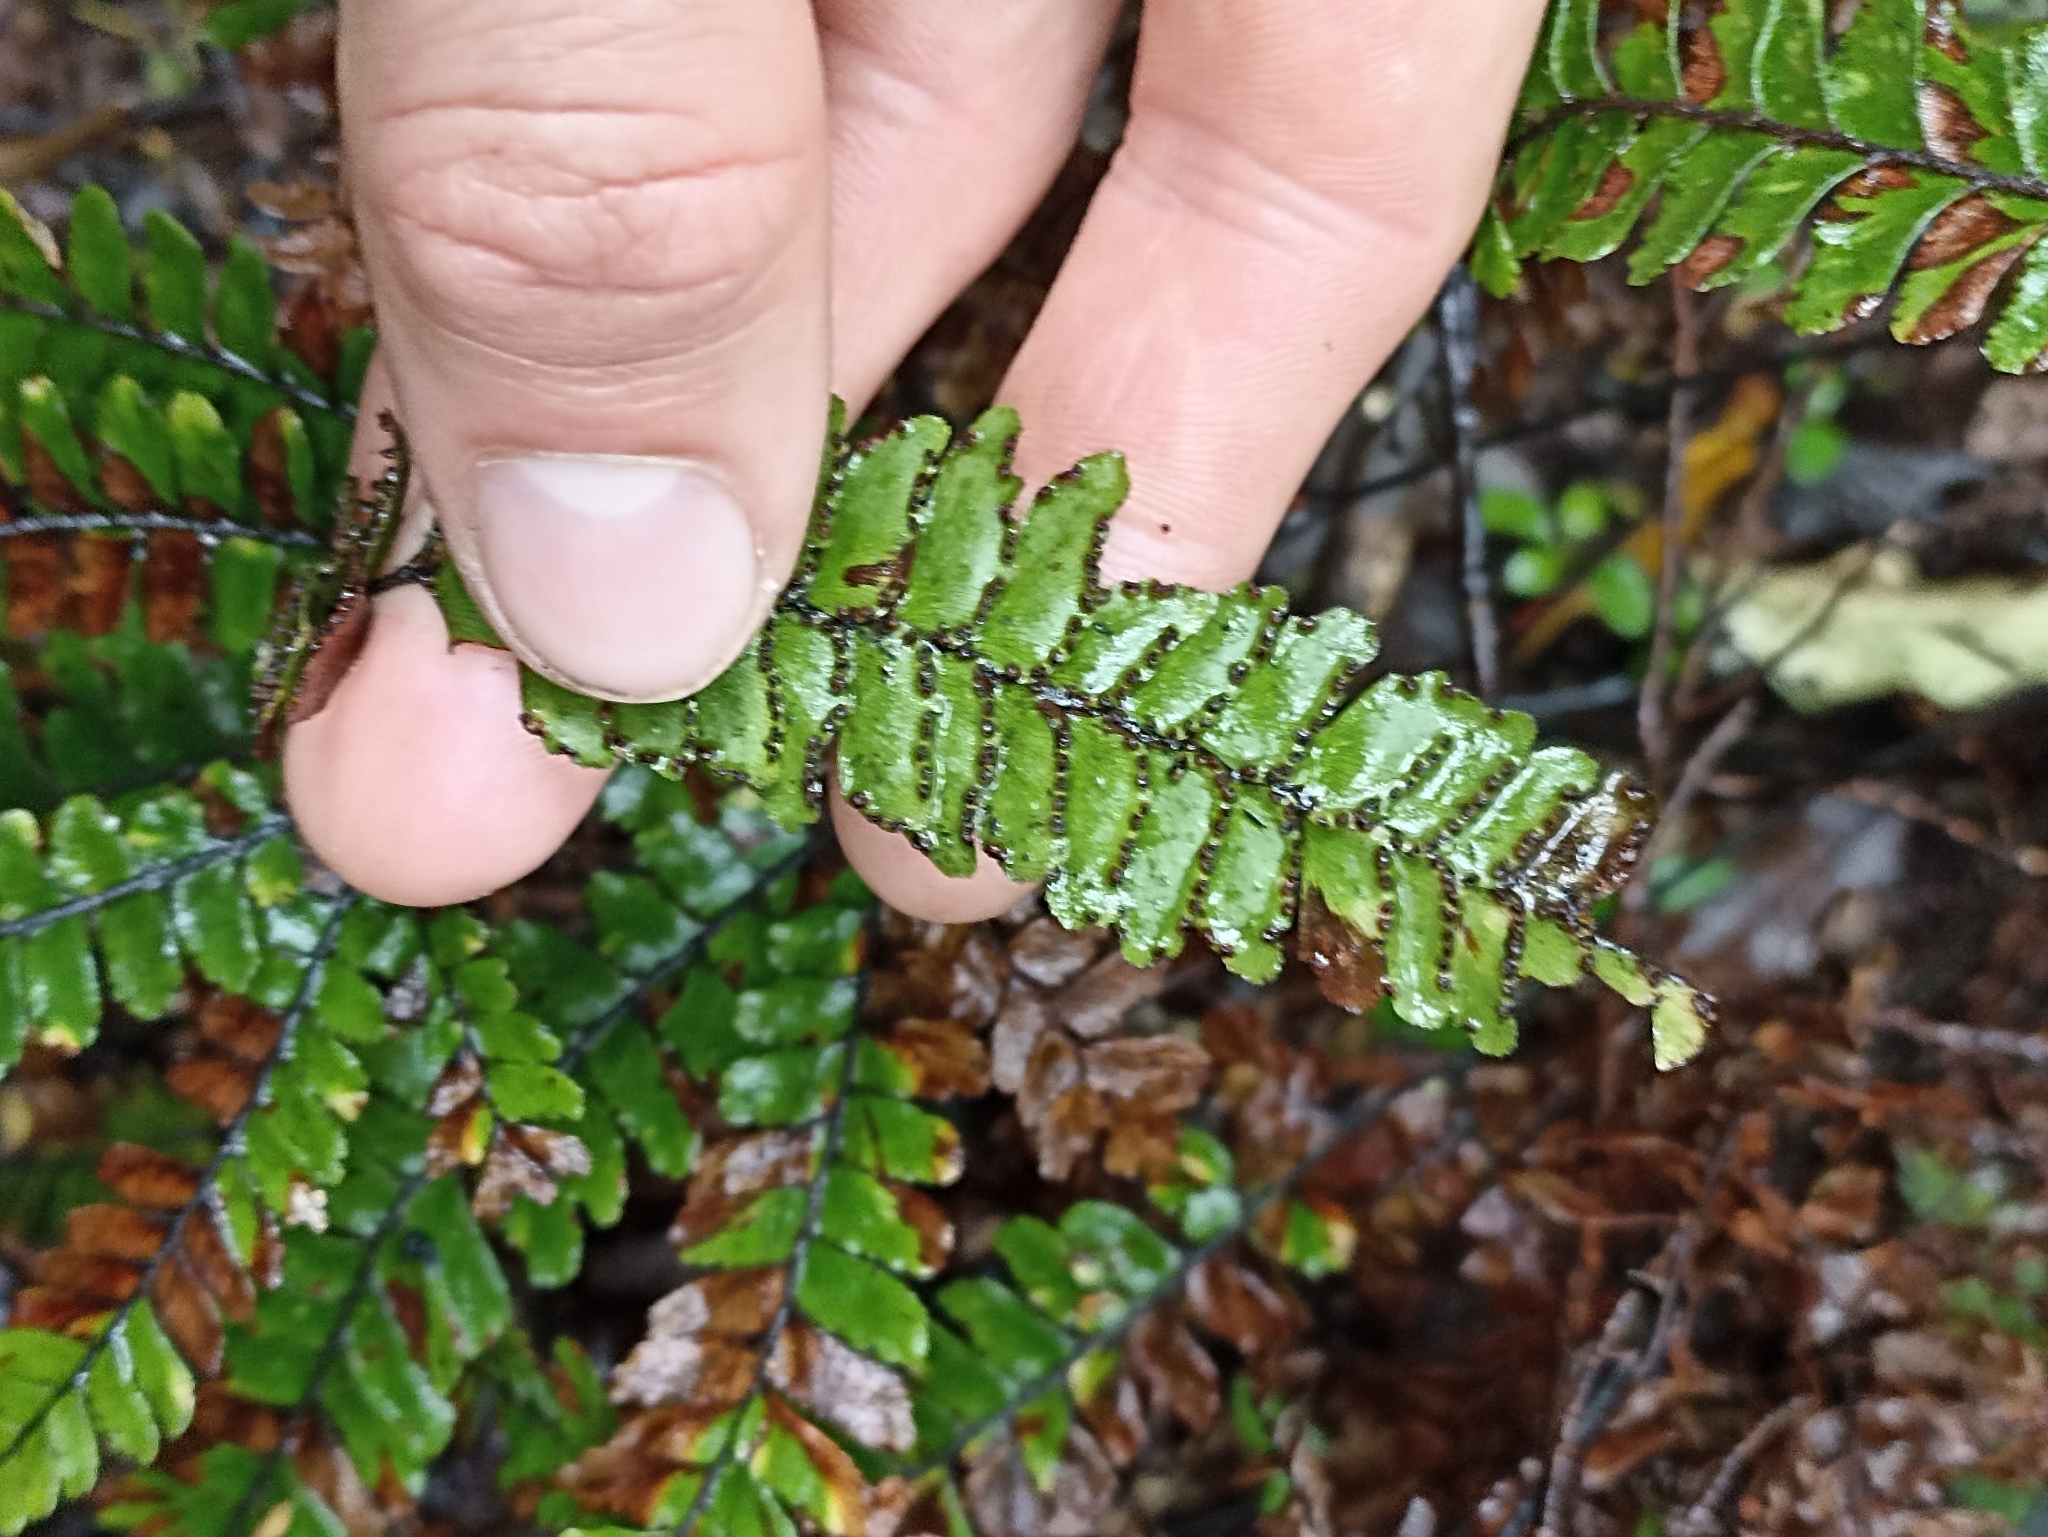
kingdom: Plantae
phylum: Tracheophyta
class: Polypodiopsida
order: Polypodiales
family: Pteridaceae
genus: Adiantum
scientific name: Adiantum hispidulum
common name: Rough maidenhair
